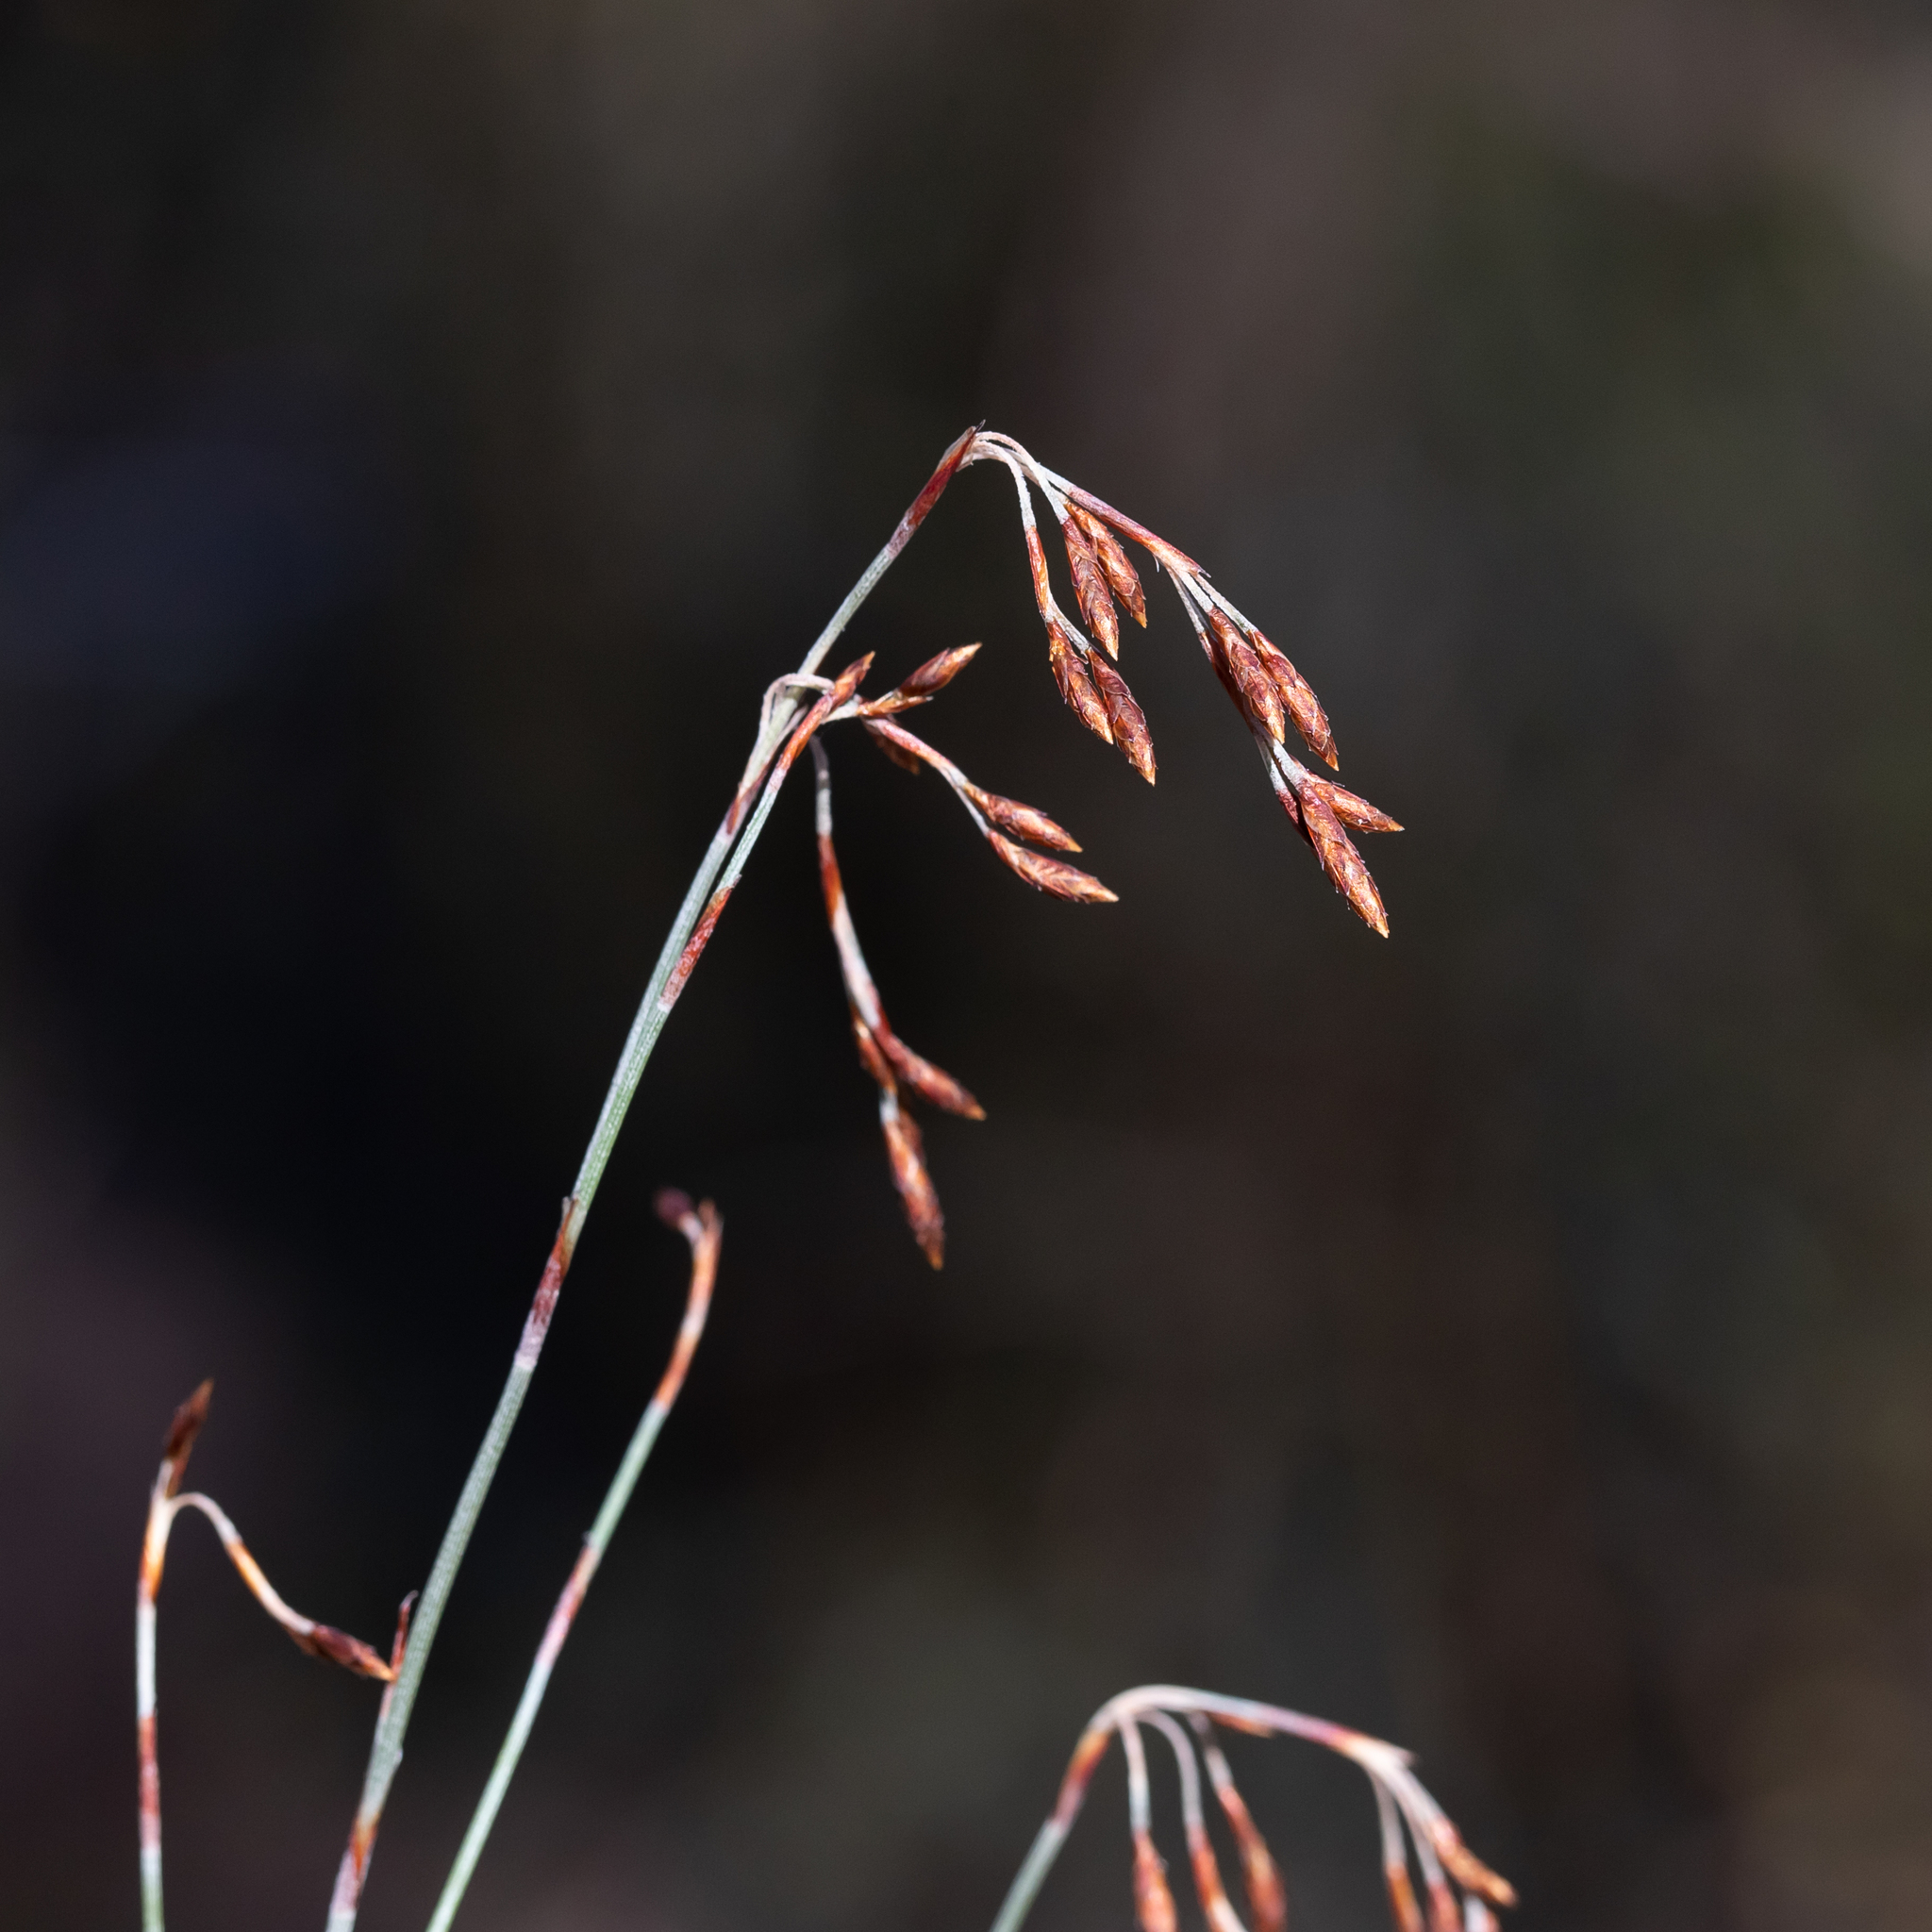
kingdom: Plantae
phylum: Tracheophyta
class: Liliopsida
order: Poales
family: Restionaceae
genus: Hypolaena
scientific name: Hypolaena fastigiata
